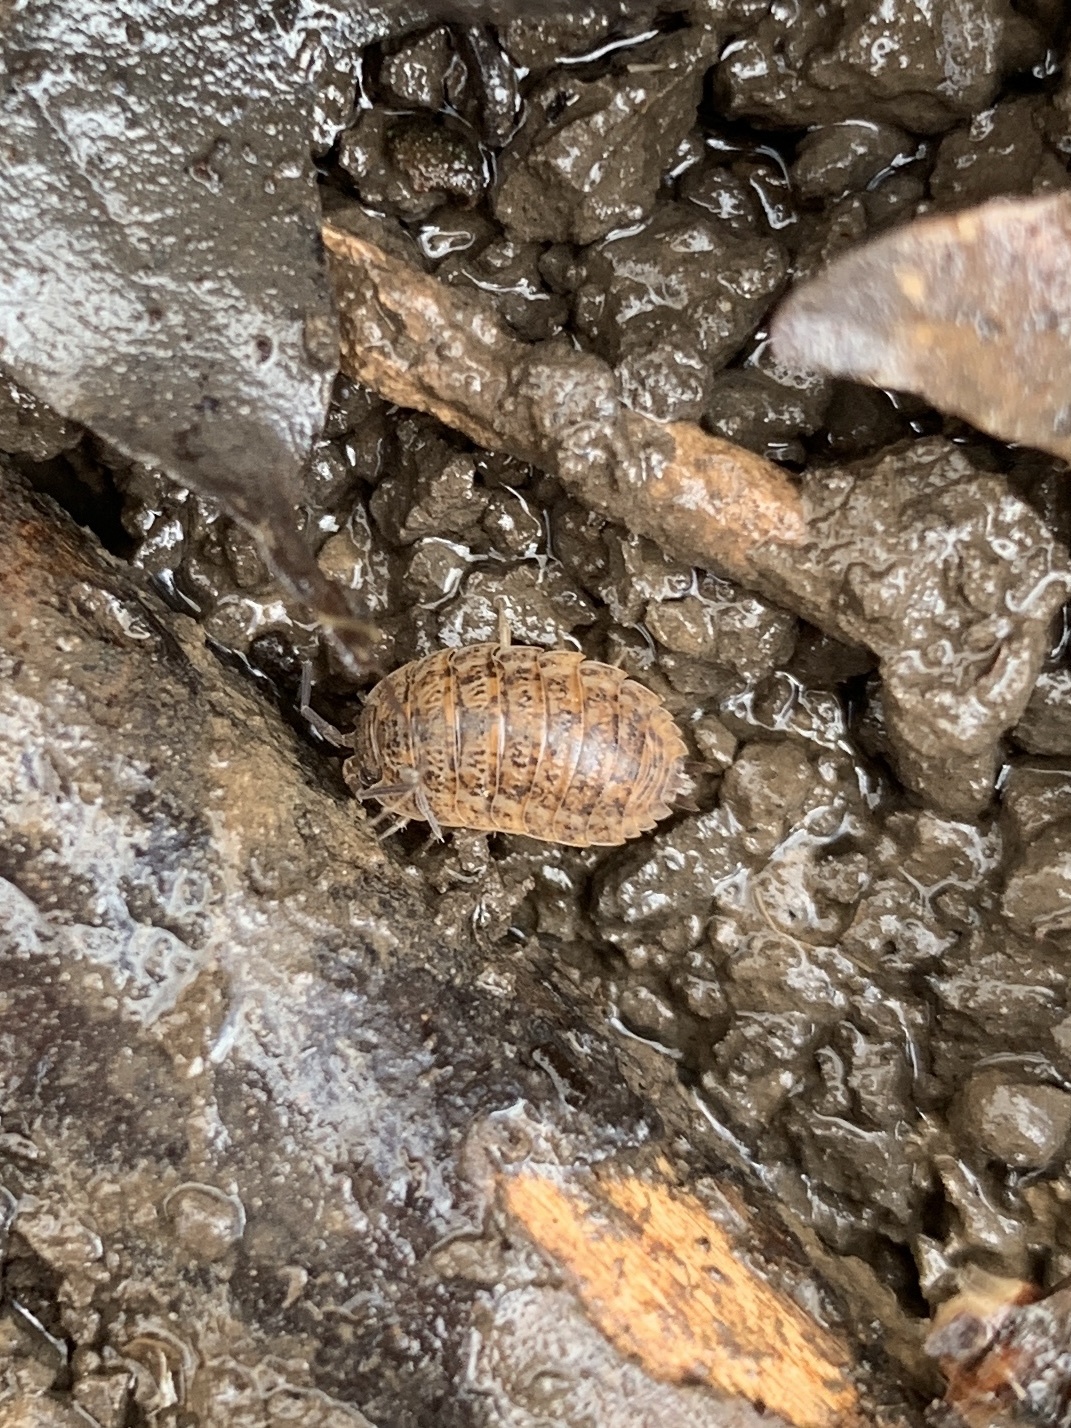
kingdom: Animalia
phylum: Arthropoda
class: Malacostraca
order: Isopoda
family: Trachelipodidae
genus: Trachelipus
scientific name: Trachelipus rathkii
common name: Isopod
